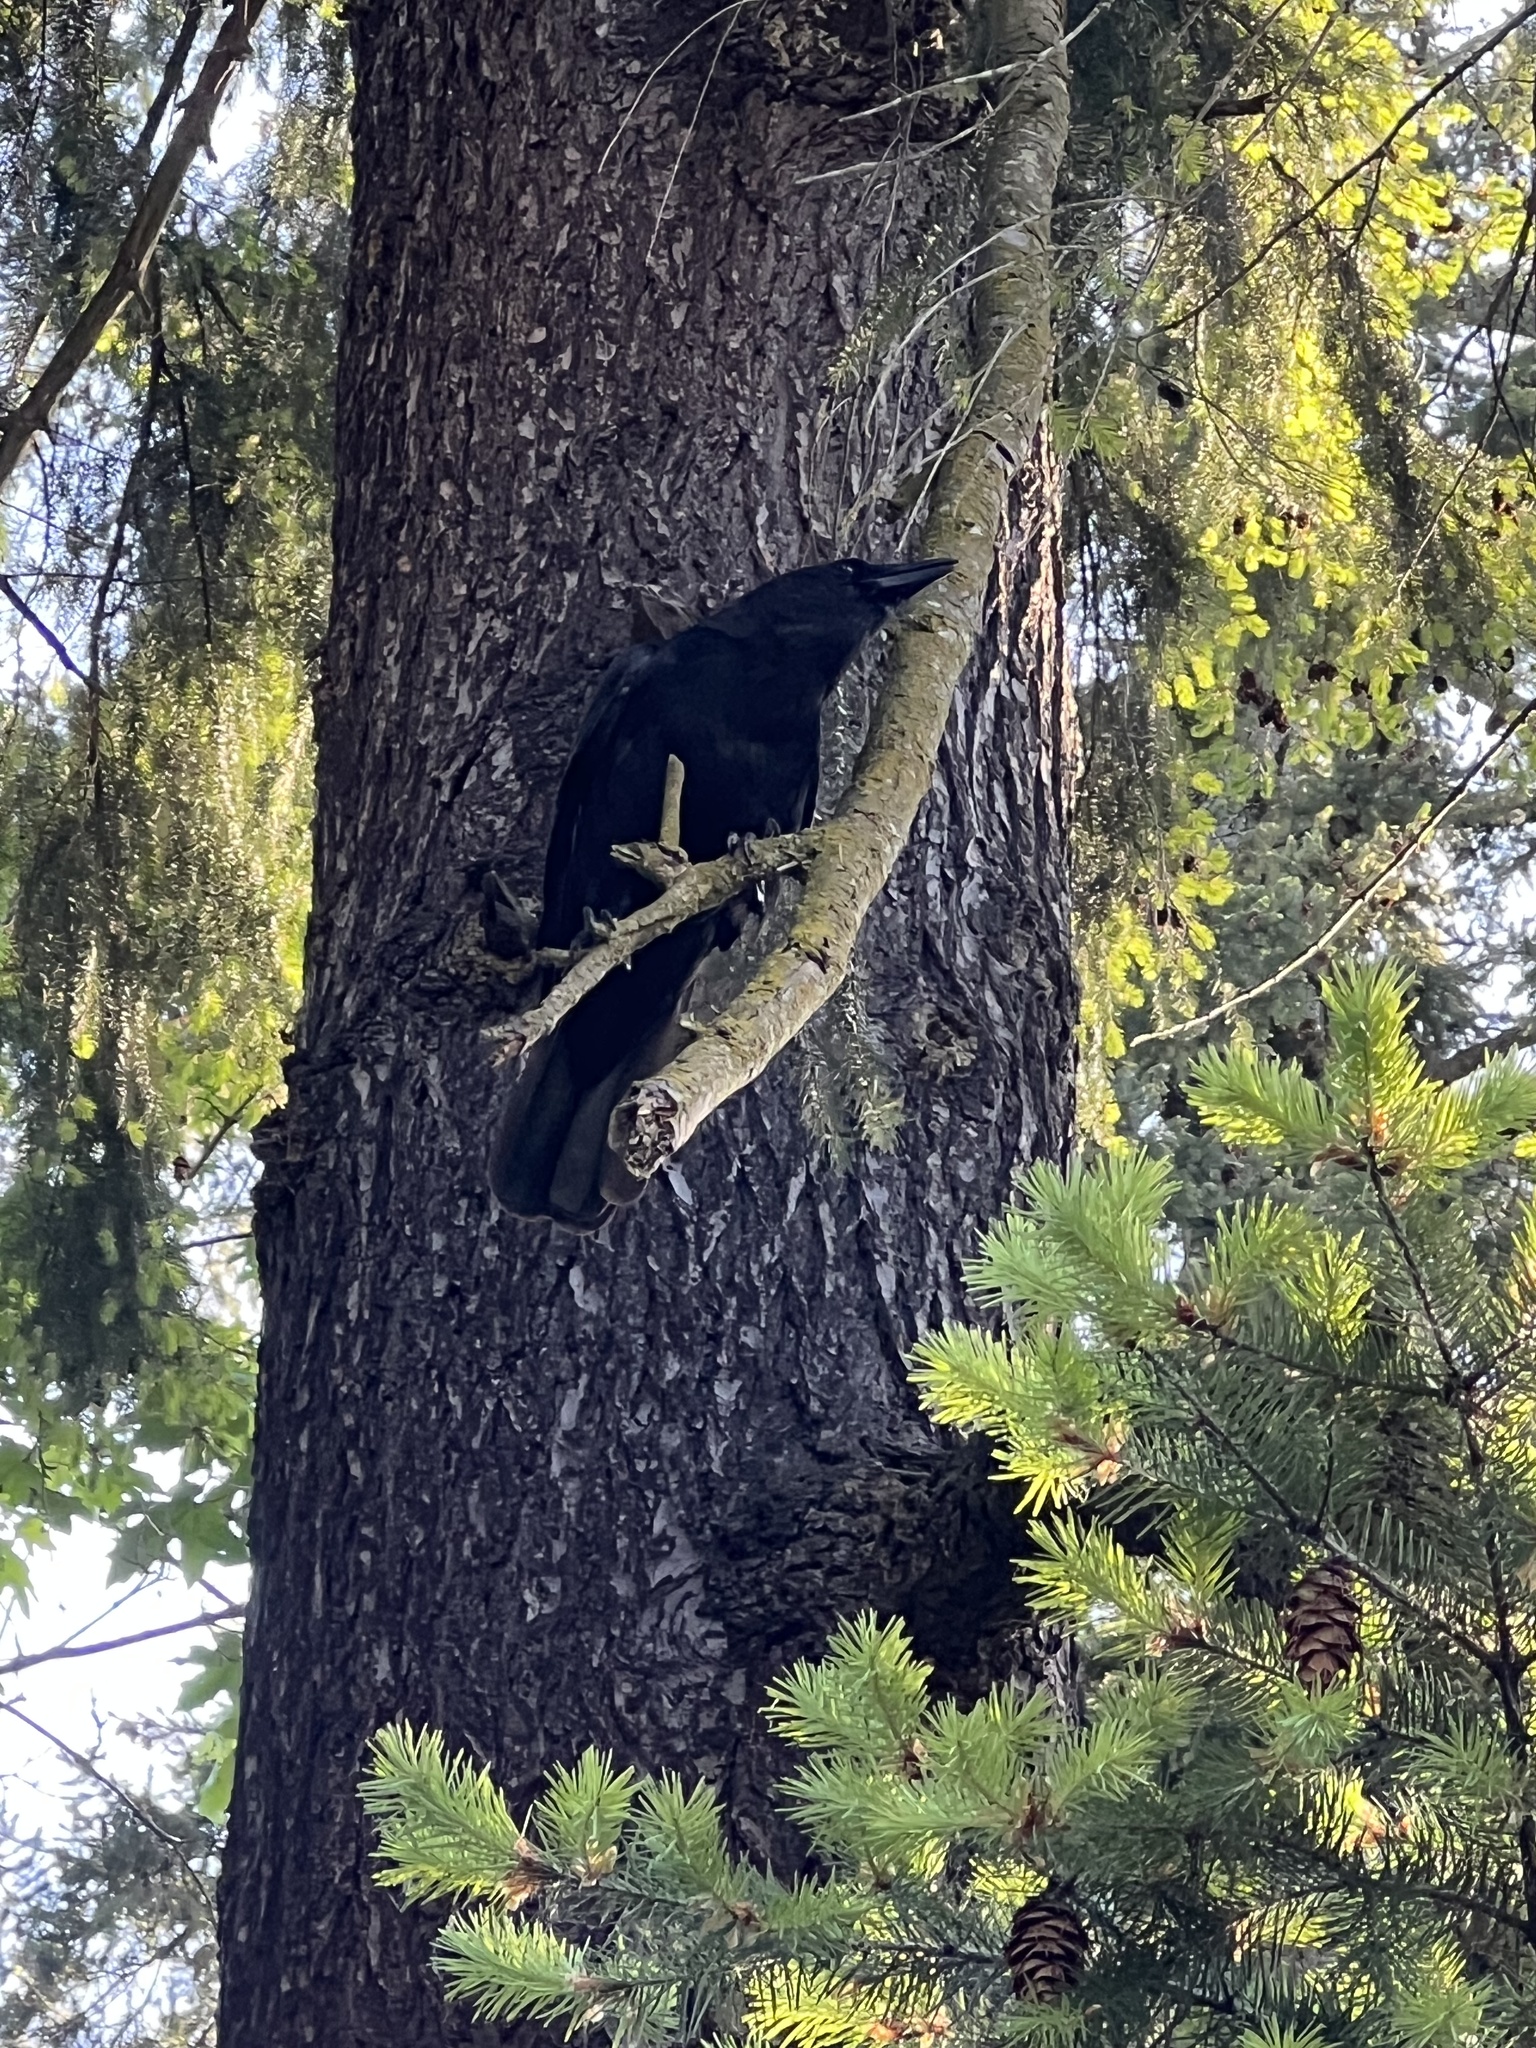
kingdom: Animalia
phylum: Chordata
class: Aves
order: Passeriformes
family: Corvidae
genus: Corvus
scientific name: Corvus brachyrhynchos
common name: American crow
